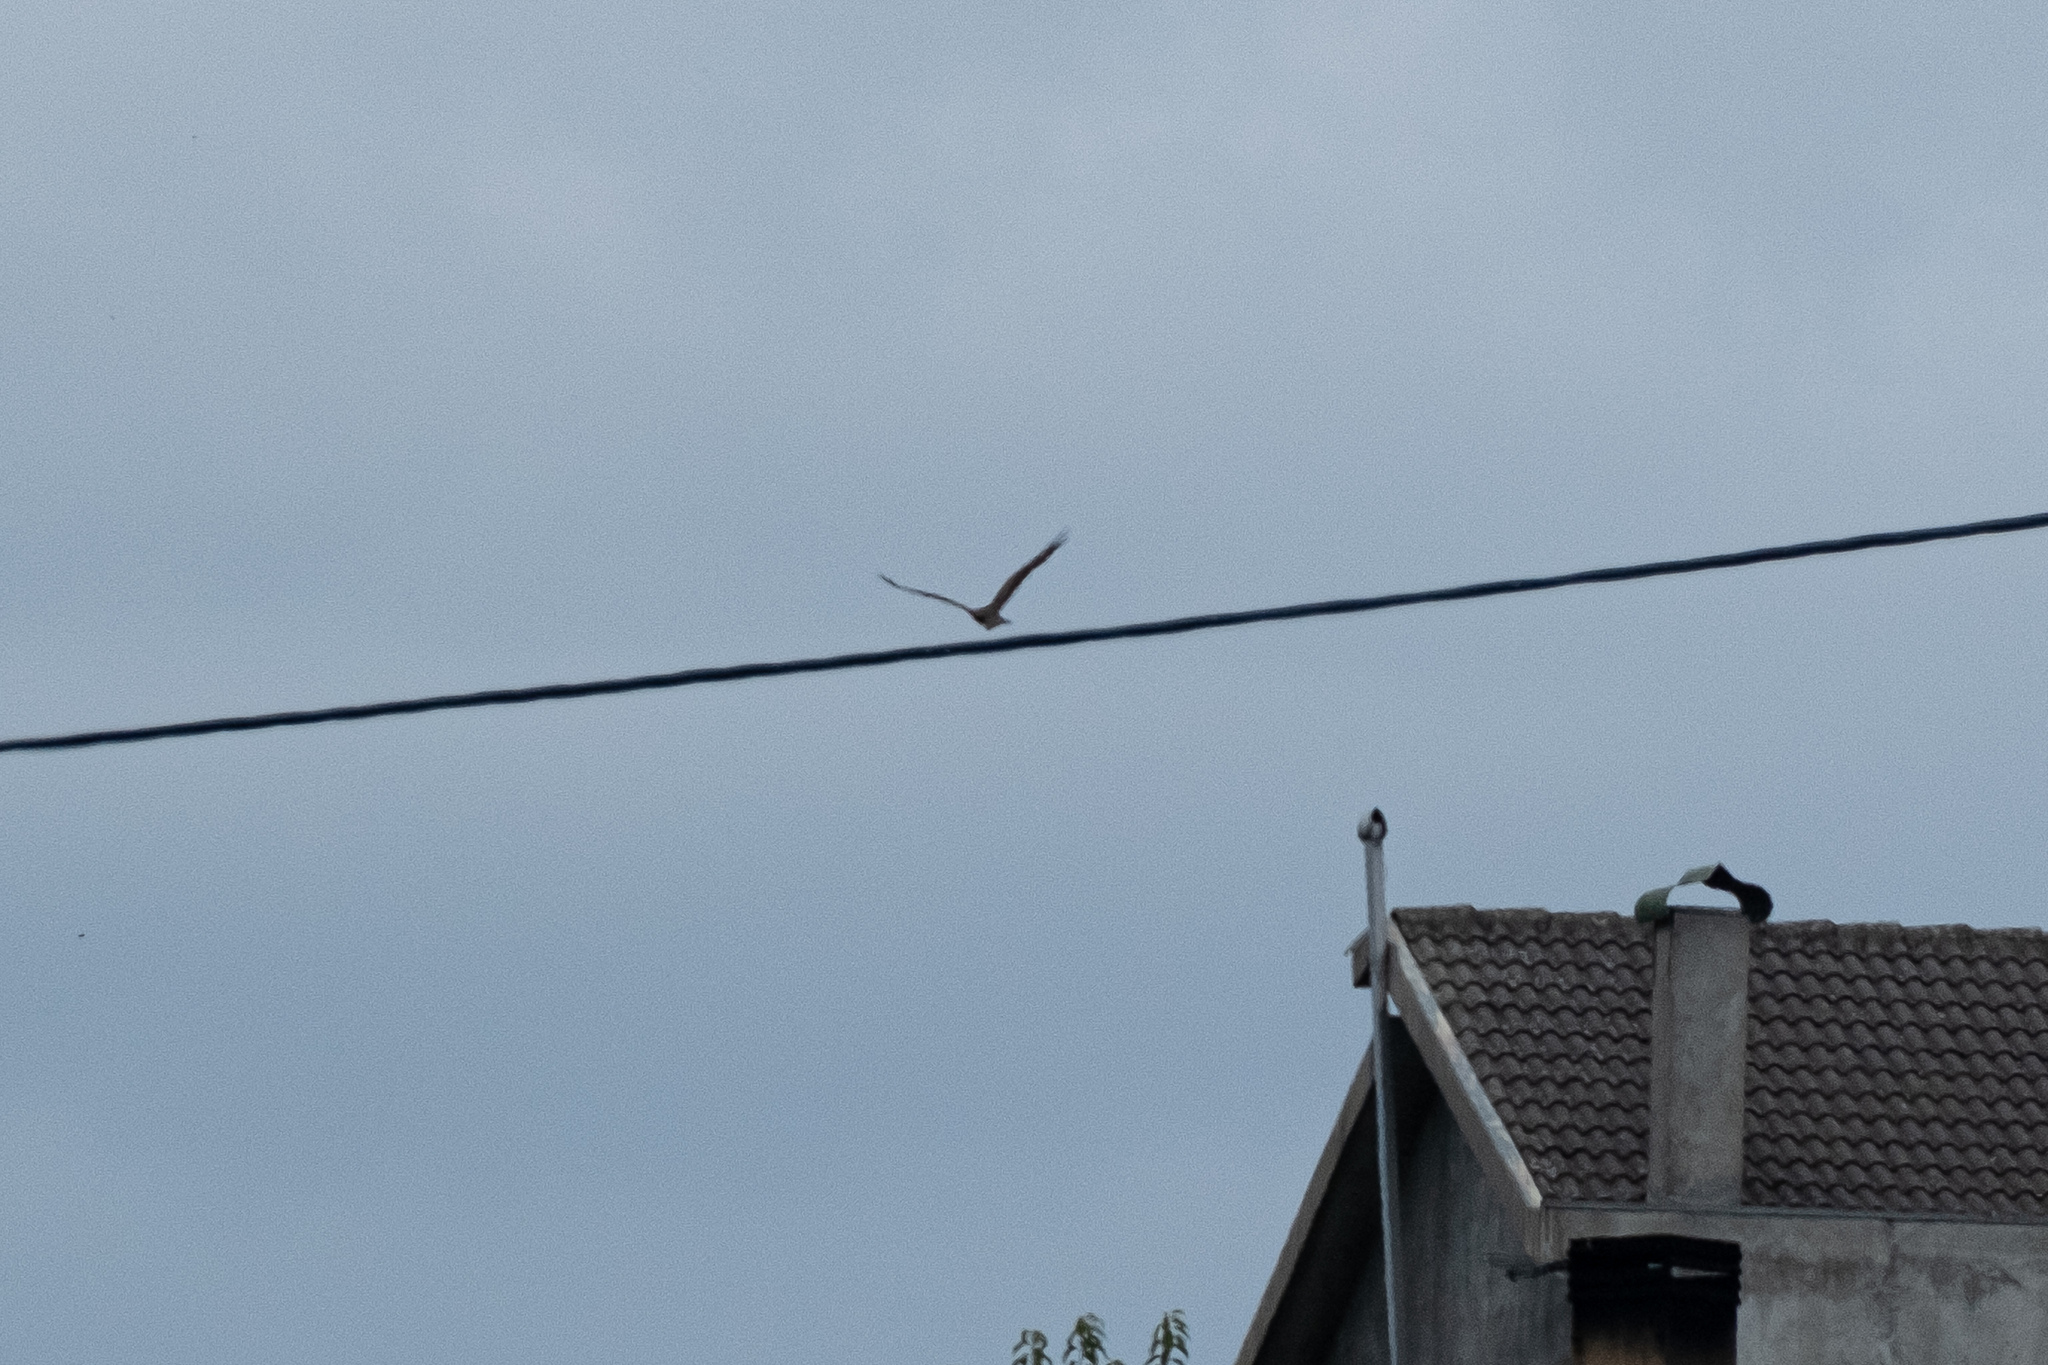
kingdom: Animalia
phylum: Chordata
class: Aves
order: Accipitriformes
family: Accipitridae
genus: Milvus
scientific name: Milvus migrans
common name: Black kite
